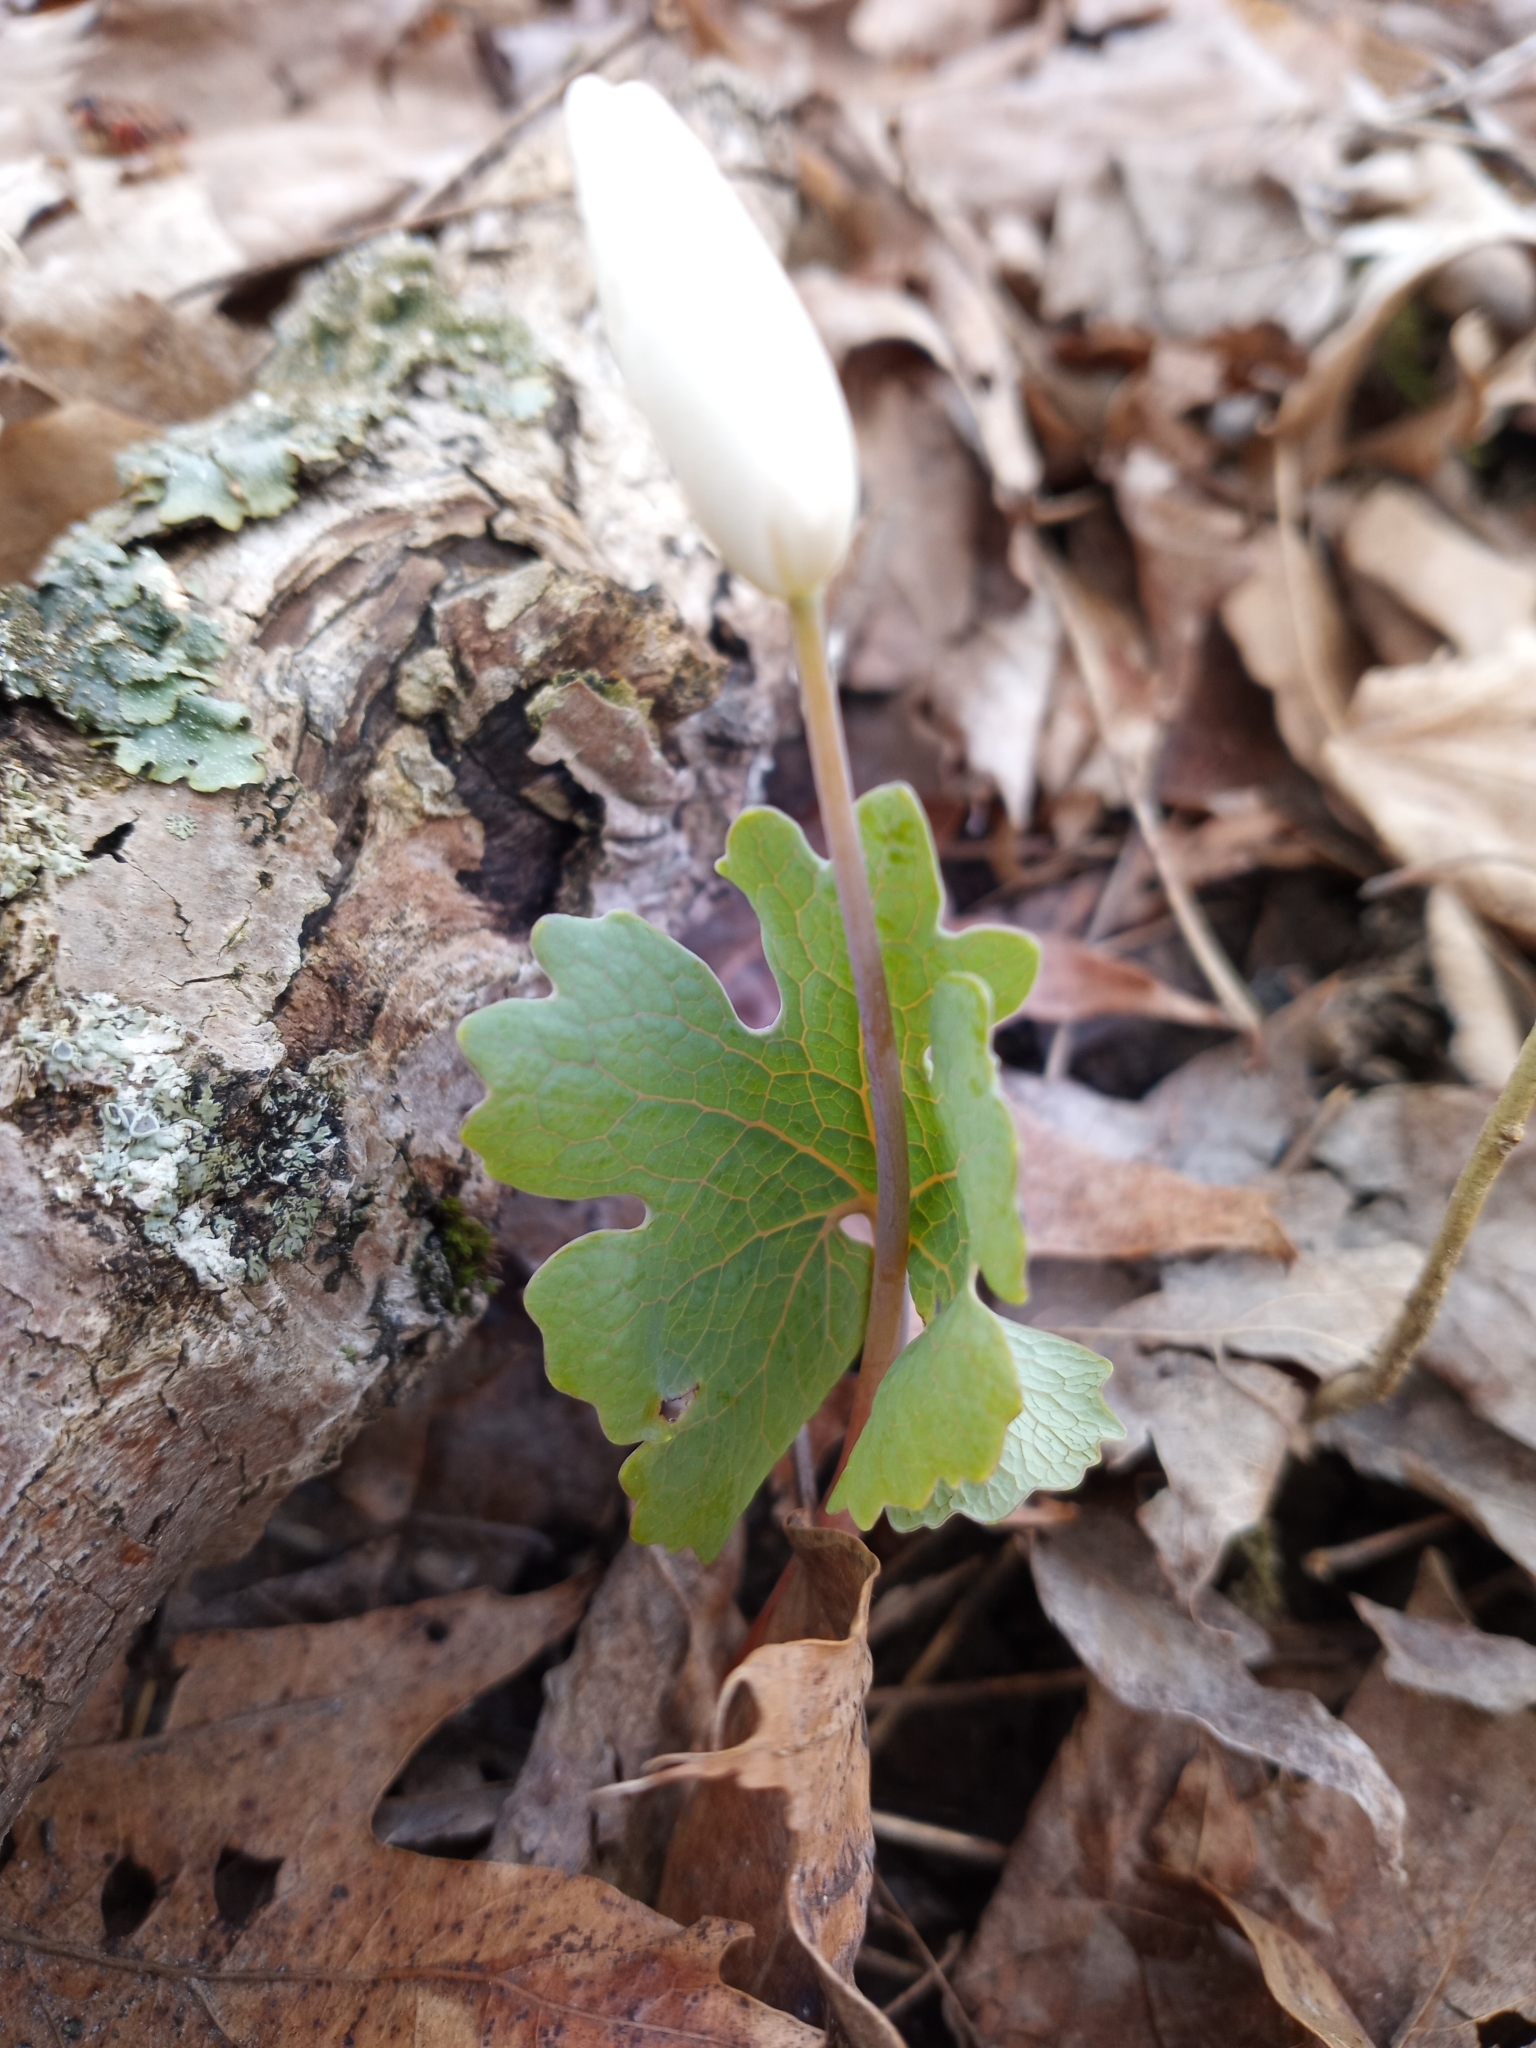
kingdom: Plantae
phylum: Tracheophyta
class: Magnoliopsida
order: Ranunculales
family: Papaveraceae
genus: Sanguinaria
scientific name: Sanguinaria canadensis
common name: Bloodroot
